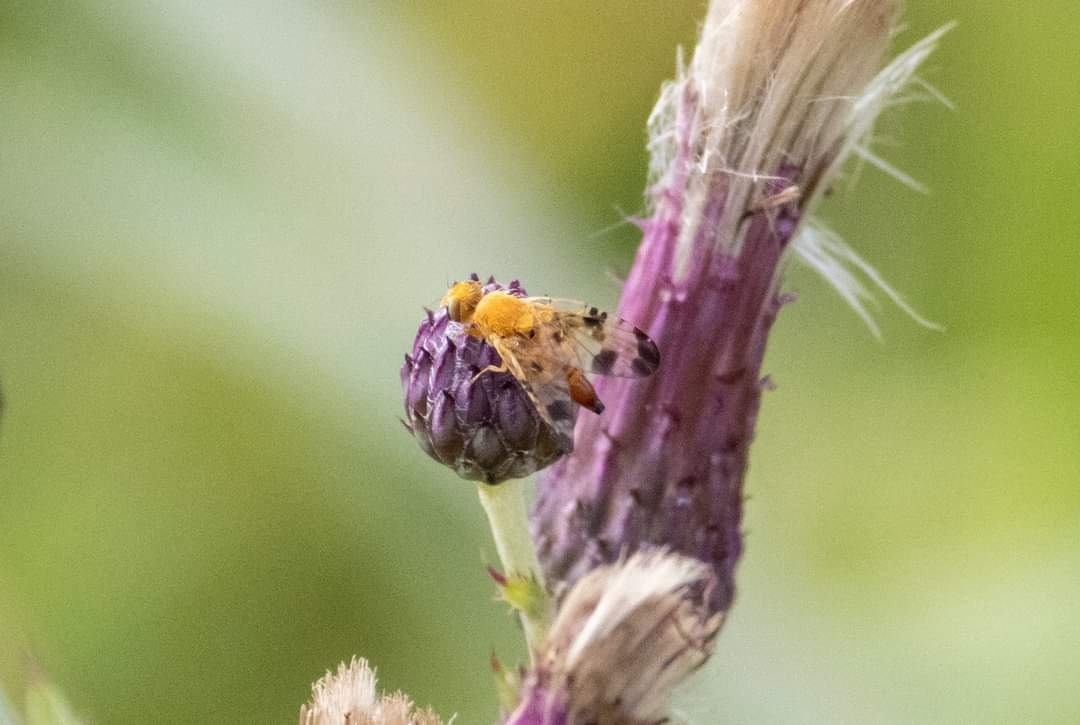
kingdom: Animalia
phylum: Arthropoda
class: Insecta
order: Diptera
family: Tephritidae
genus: Xyphosia
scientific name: Xyphosia miliaria
